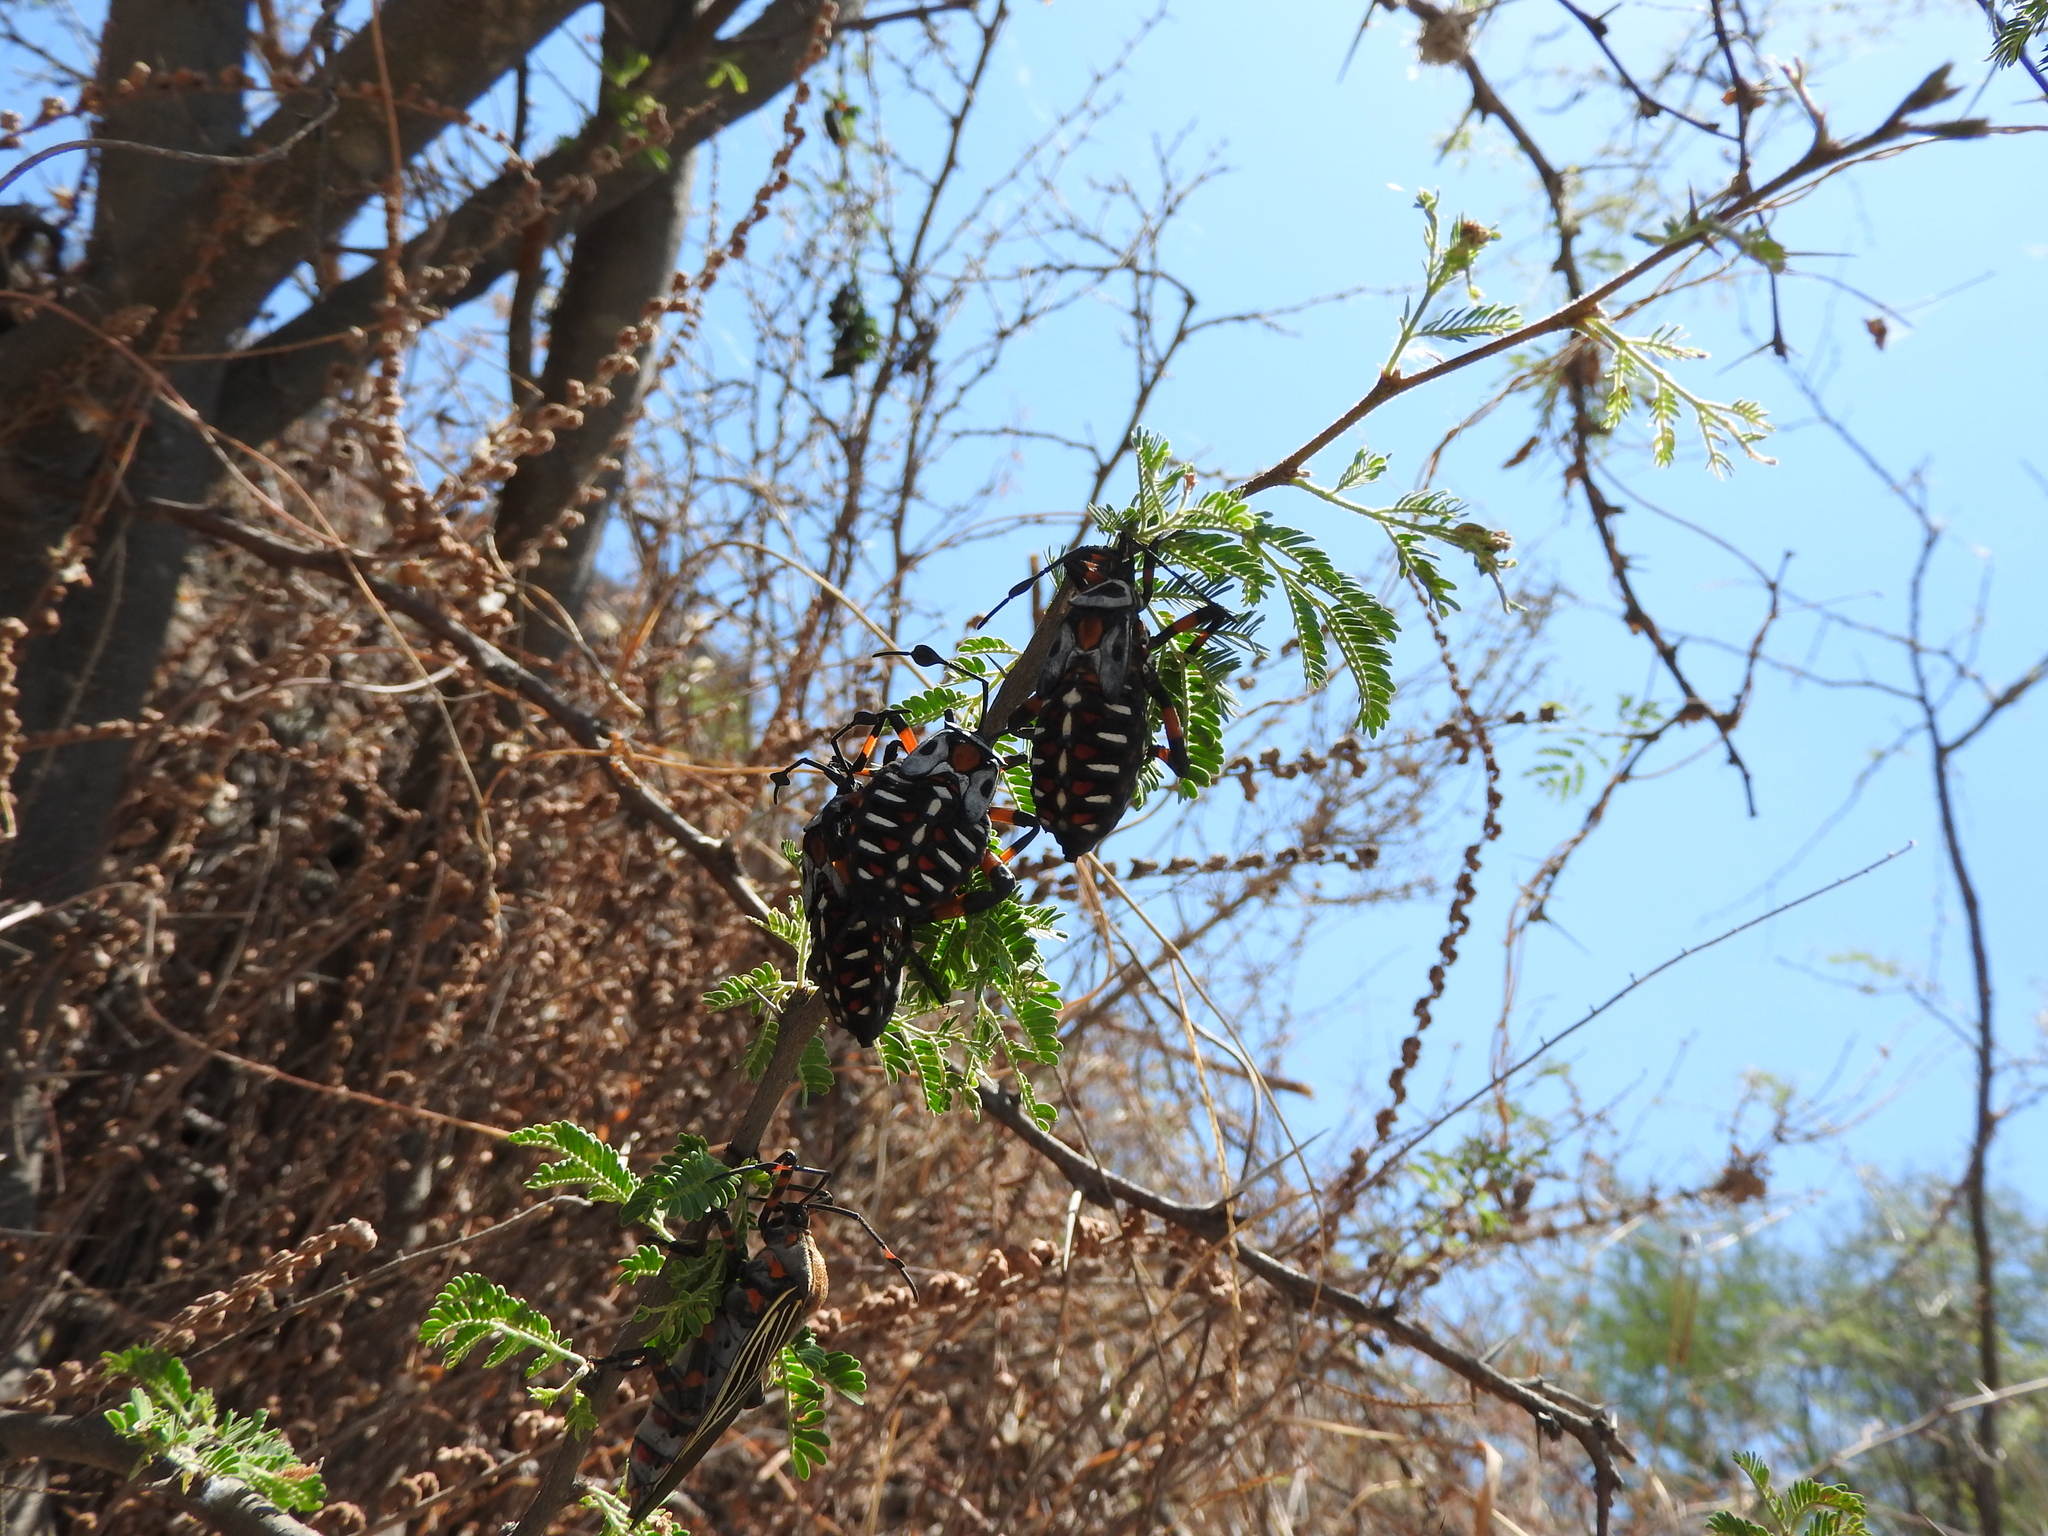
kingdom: Animalia
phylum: Arthropoda
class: Insecta
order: Hemiptera
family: Coreidae
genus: Thasus
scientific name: Thasus
